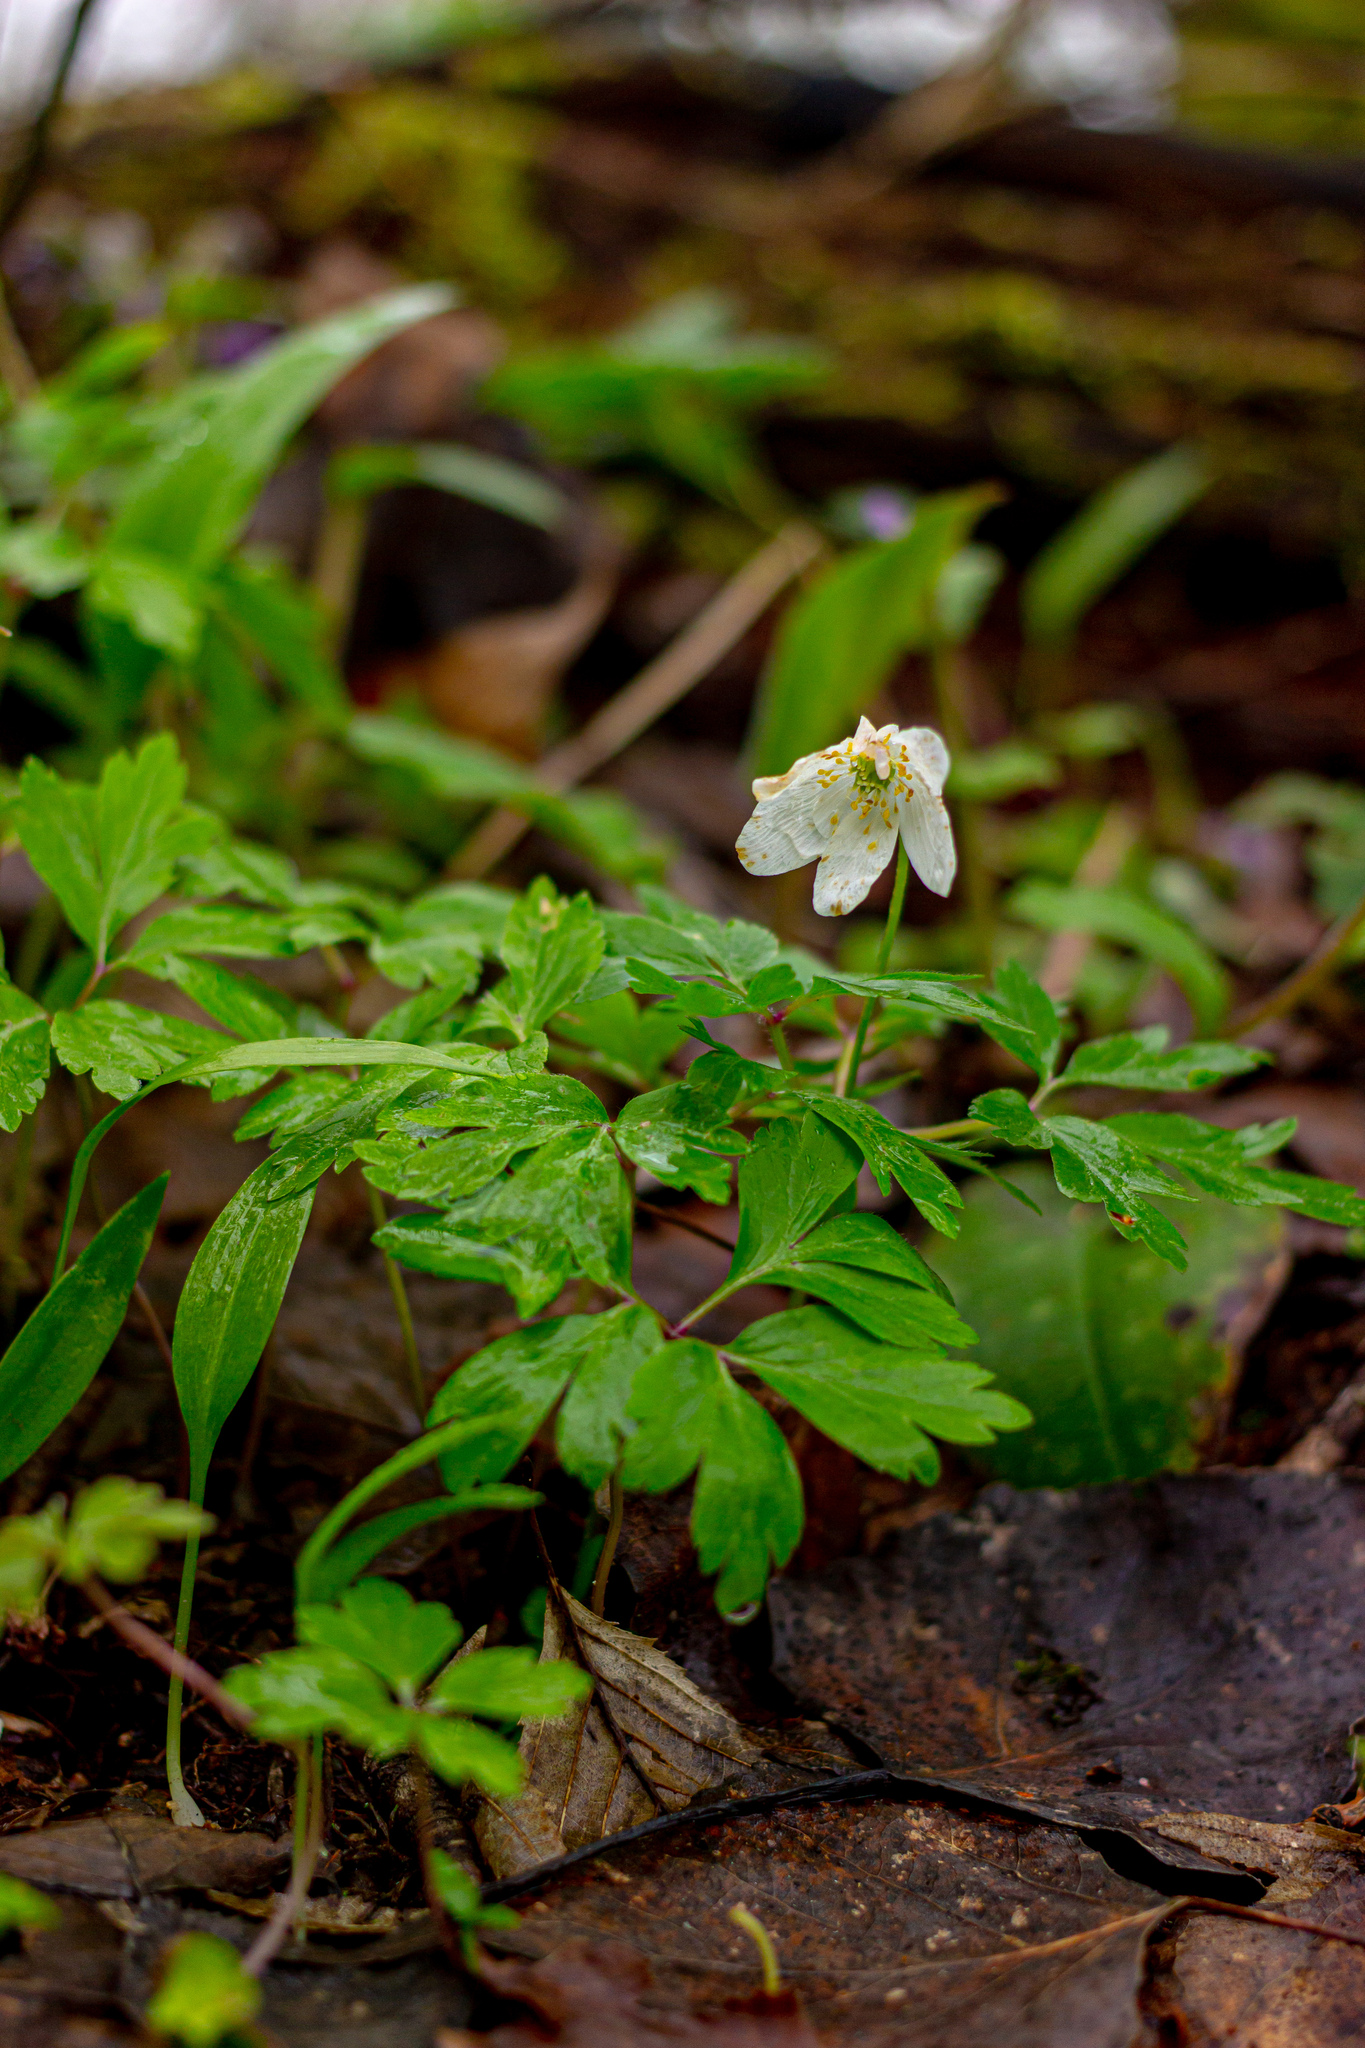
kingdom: Plantae
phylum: Tracheophyta
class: Magnoliopsida
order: Ranunculales
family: Ranunculaceae
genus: Anemone
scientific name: Anemone nemorosa
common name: Wood anemone
